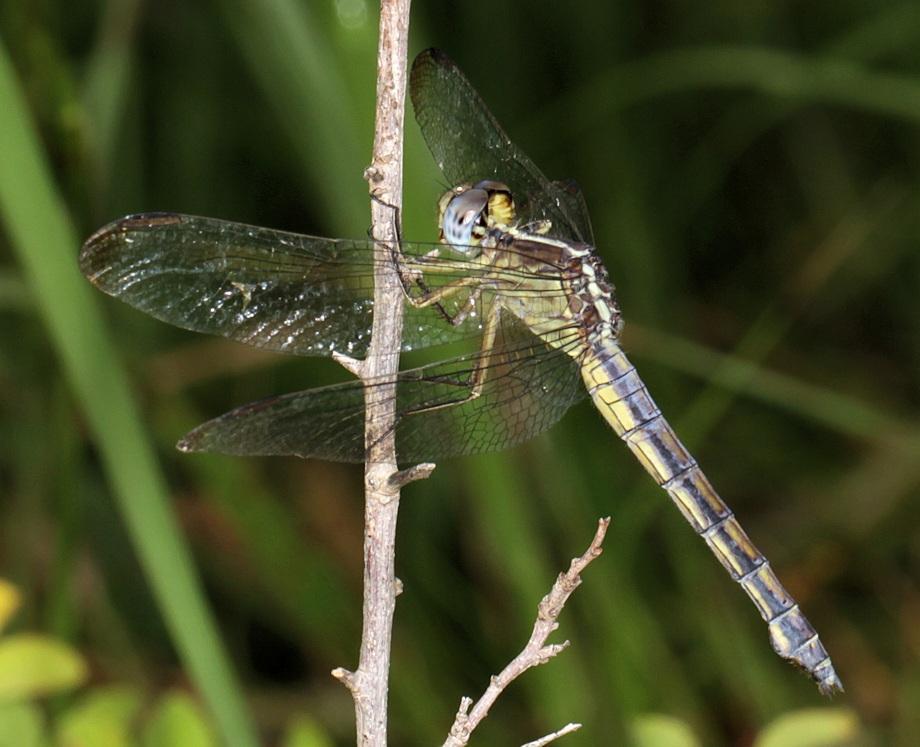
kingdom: Animalia
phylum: Arthropoda
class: Insecta
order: Odonata
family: Libellulidae
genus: Nesciothemis
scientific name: Nesciothemis farinosa
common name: Eastern blacktail
